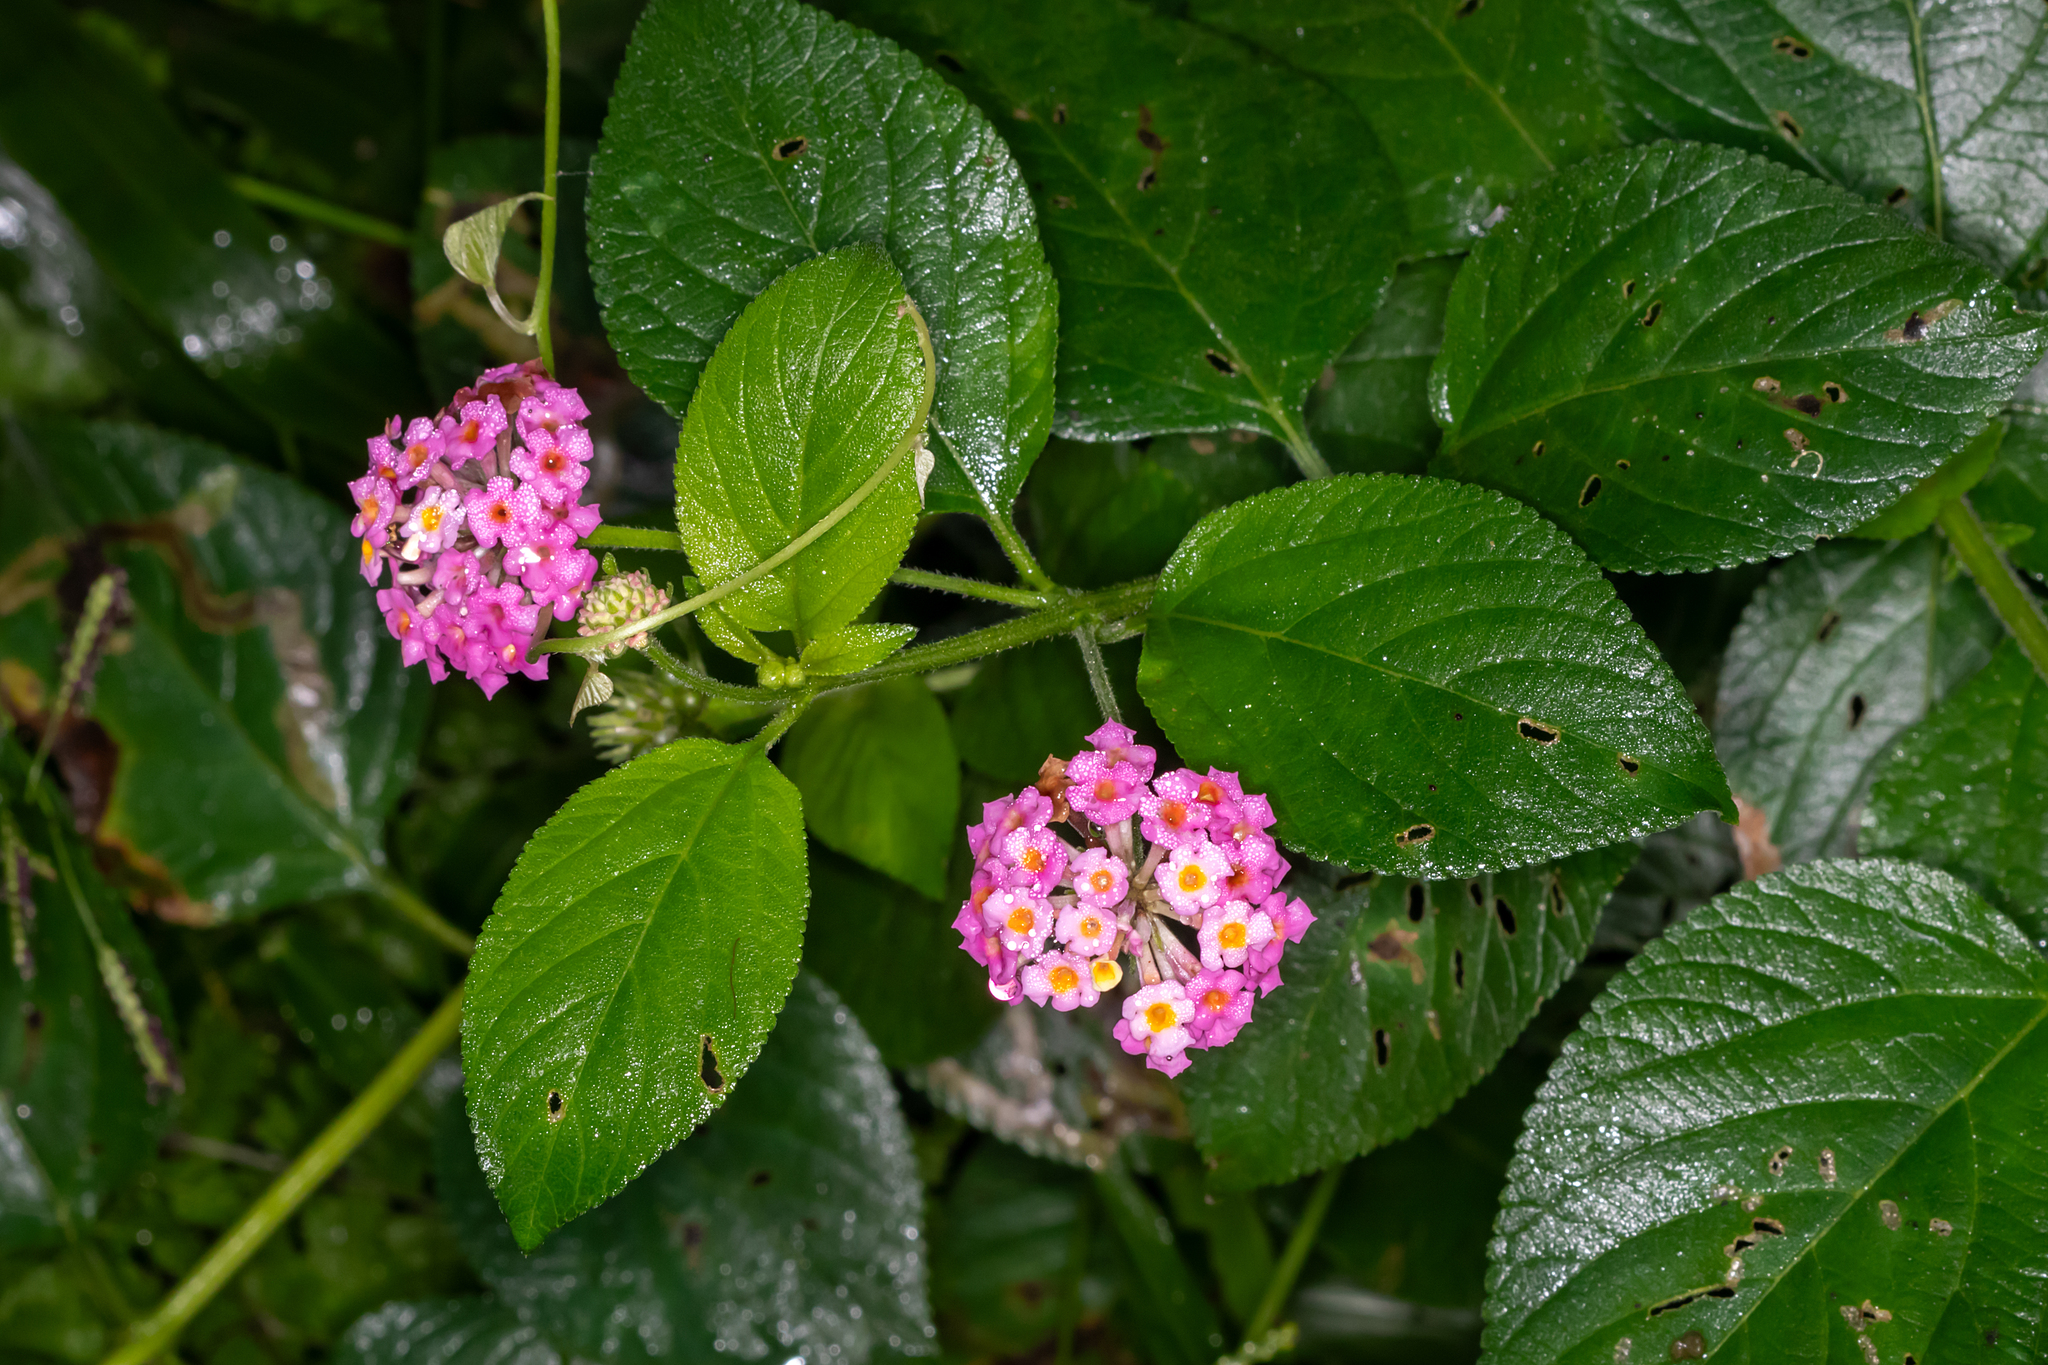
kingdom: Plantae
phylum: Tracheophyta
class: Magnoliopsida
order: Lamiales
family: Verbenaceae
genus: Lantana
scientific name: Lantana camara
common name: Lantana
